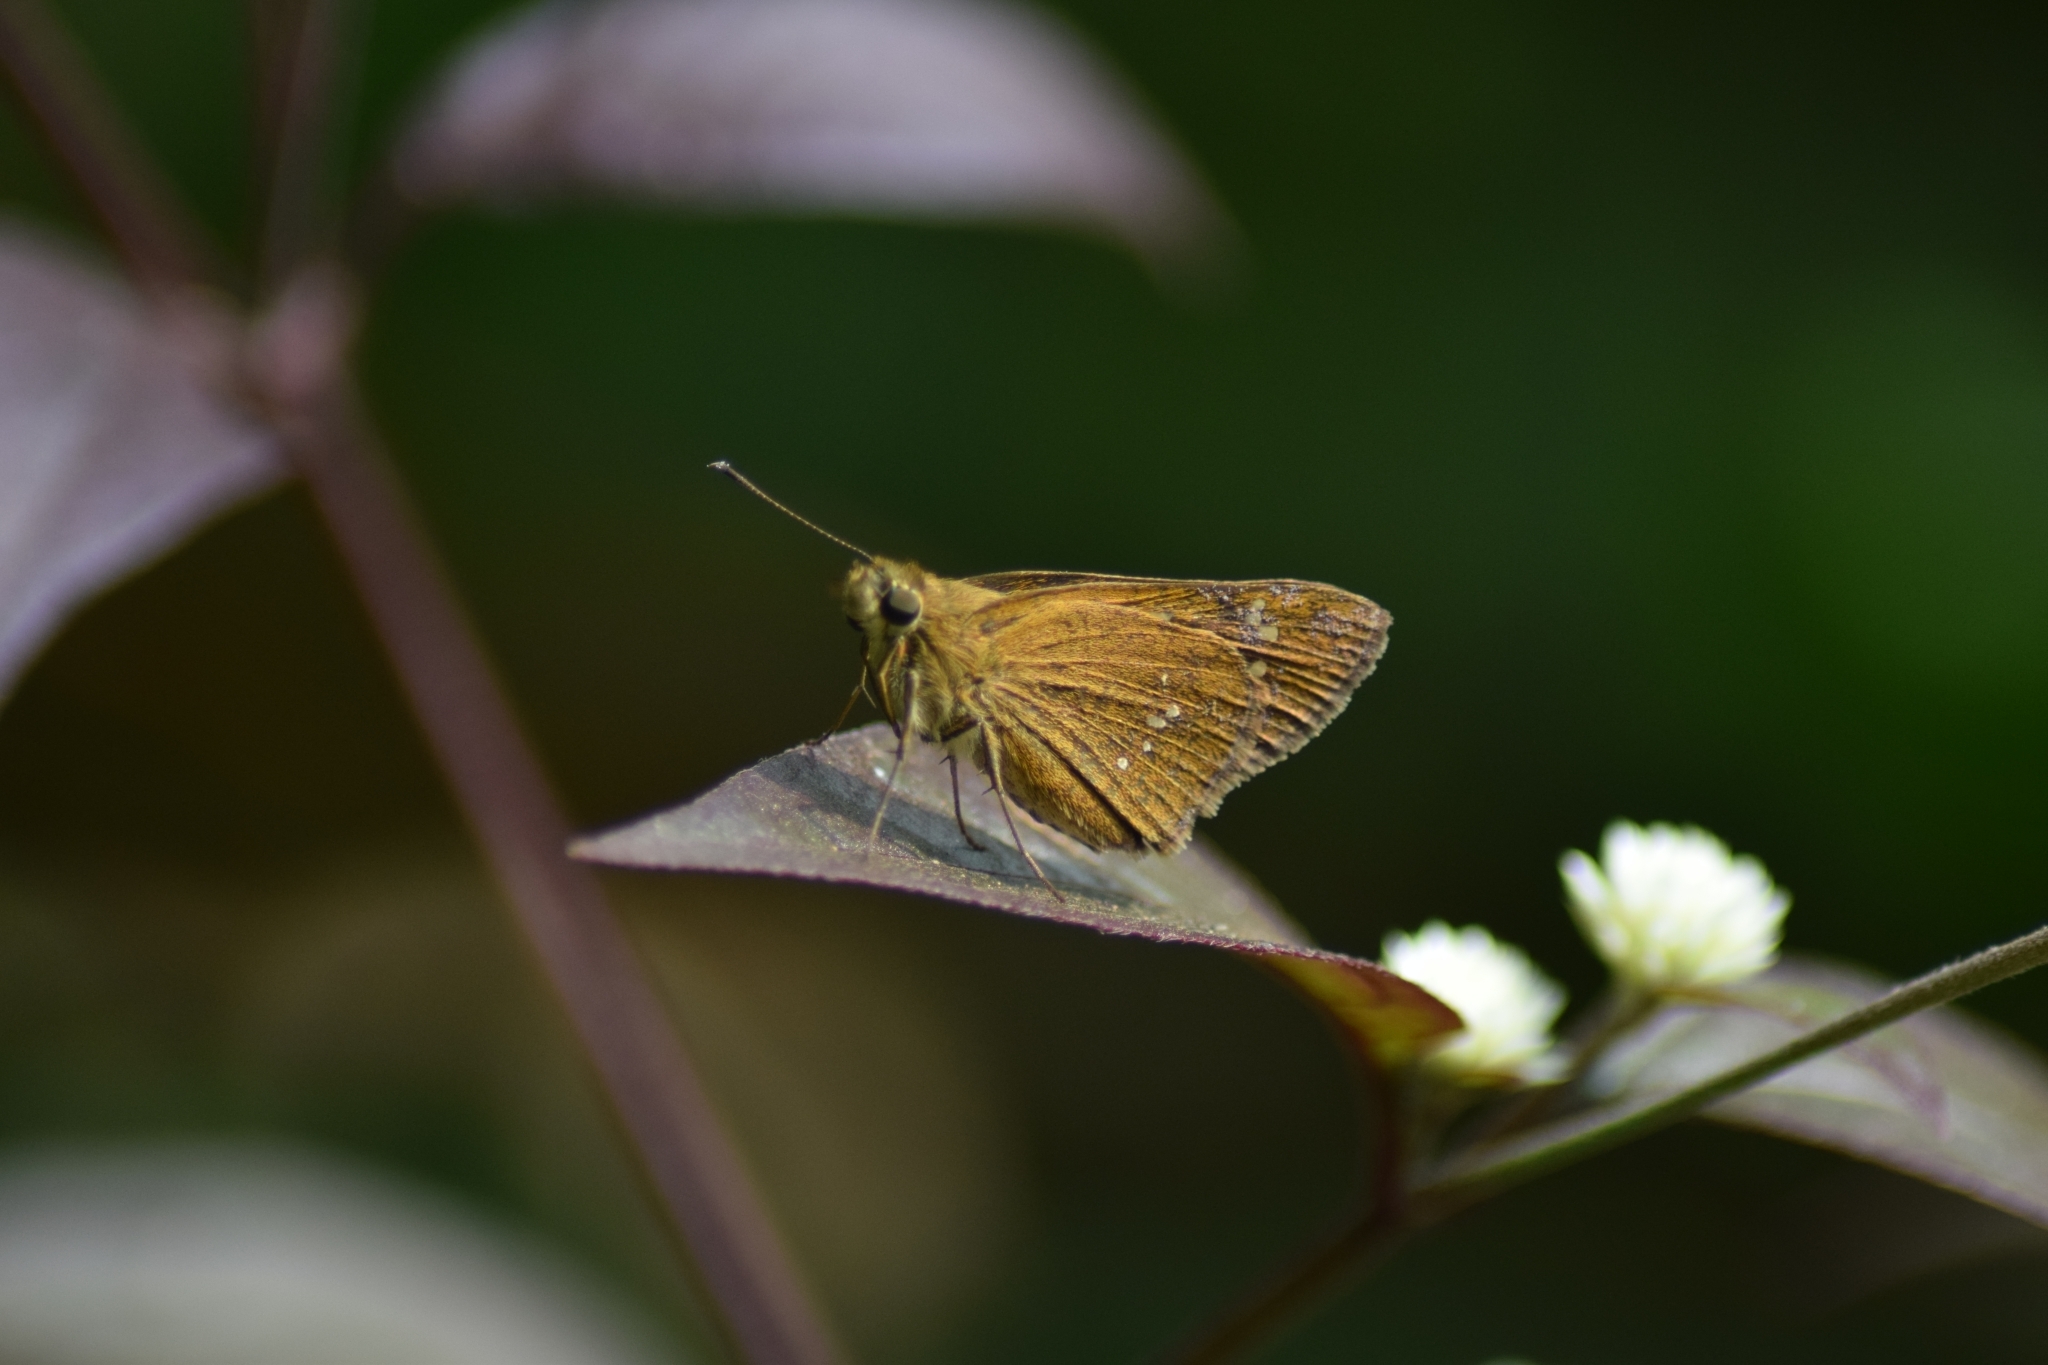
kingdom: Animalia
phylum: Arthropoda
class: Insecta
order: Lepidoptera
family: Hesperiidae
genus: Polytremis
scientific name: Polytremis lubricans
